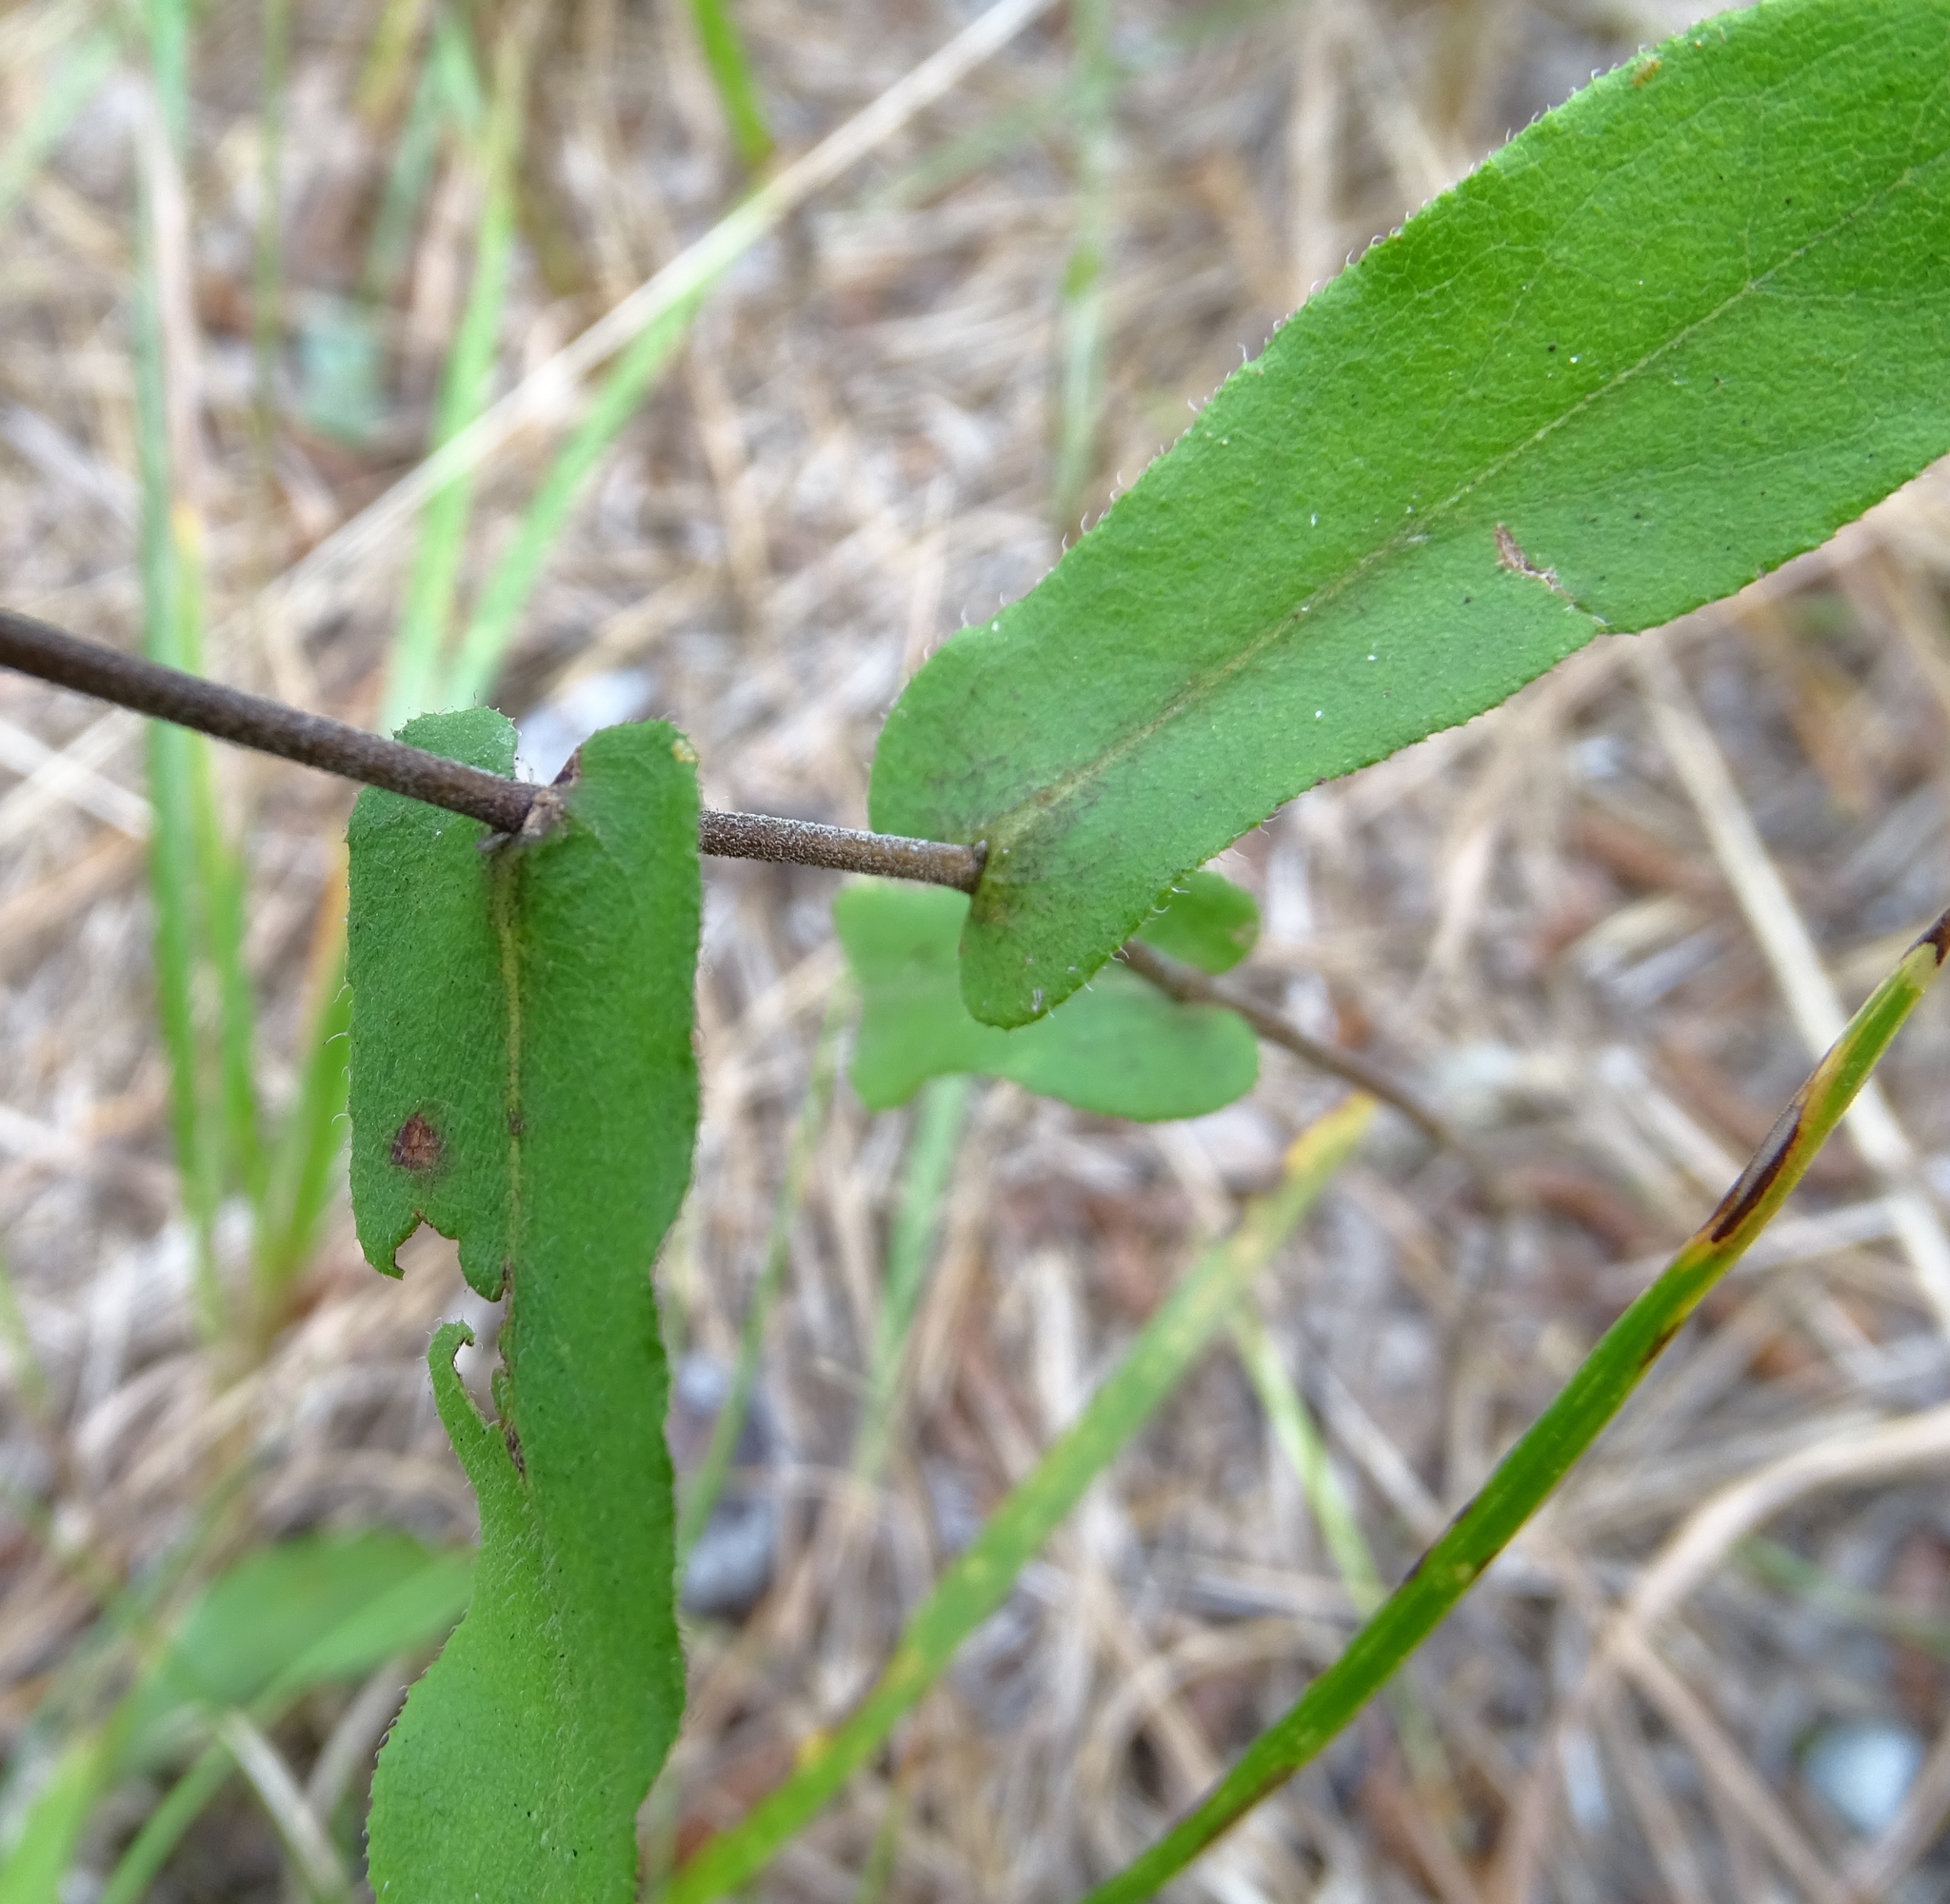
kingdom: Plantae
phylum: Tracheophyta
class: Magnoliopsida
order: Asterales
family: Asteraceae
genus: Symphyotrichum
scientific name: Symphyotrichum patens
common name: Late purple aster
